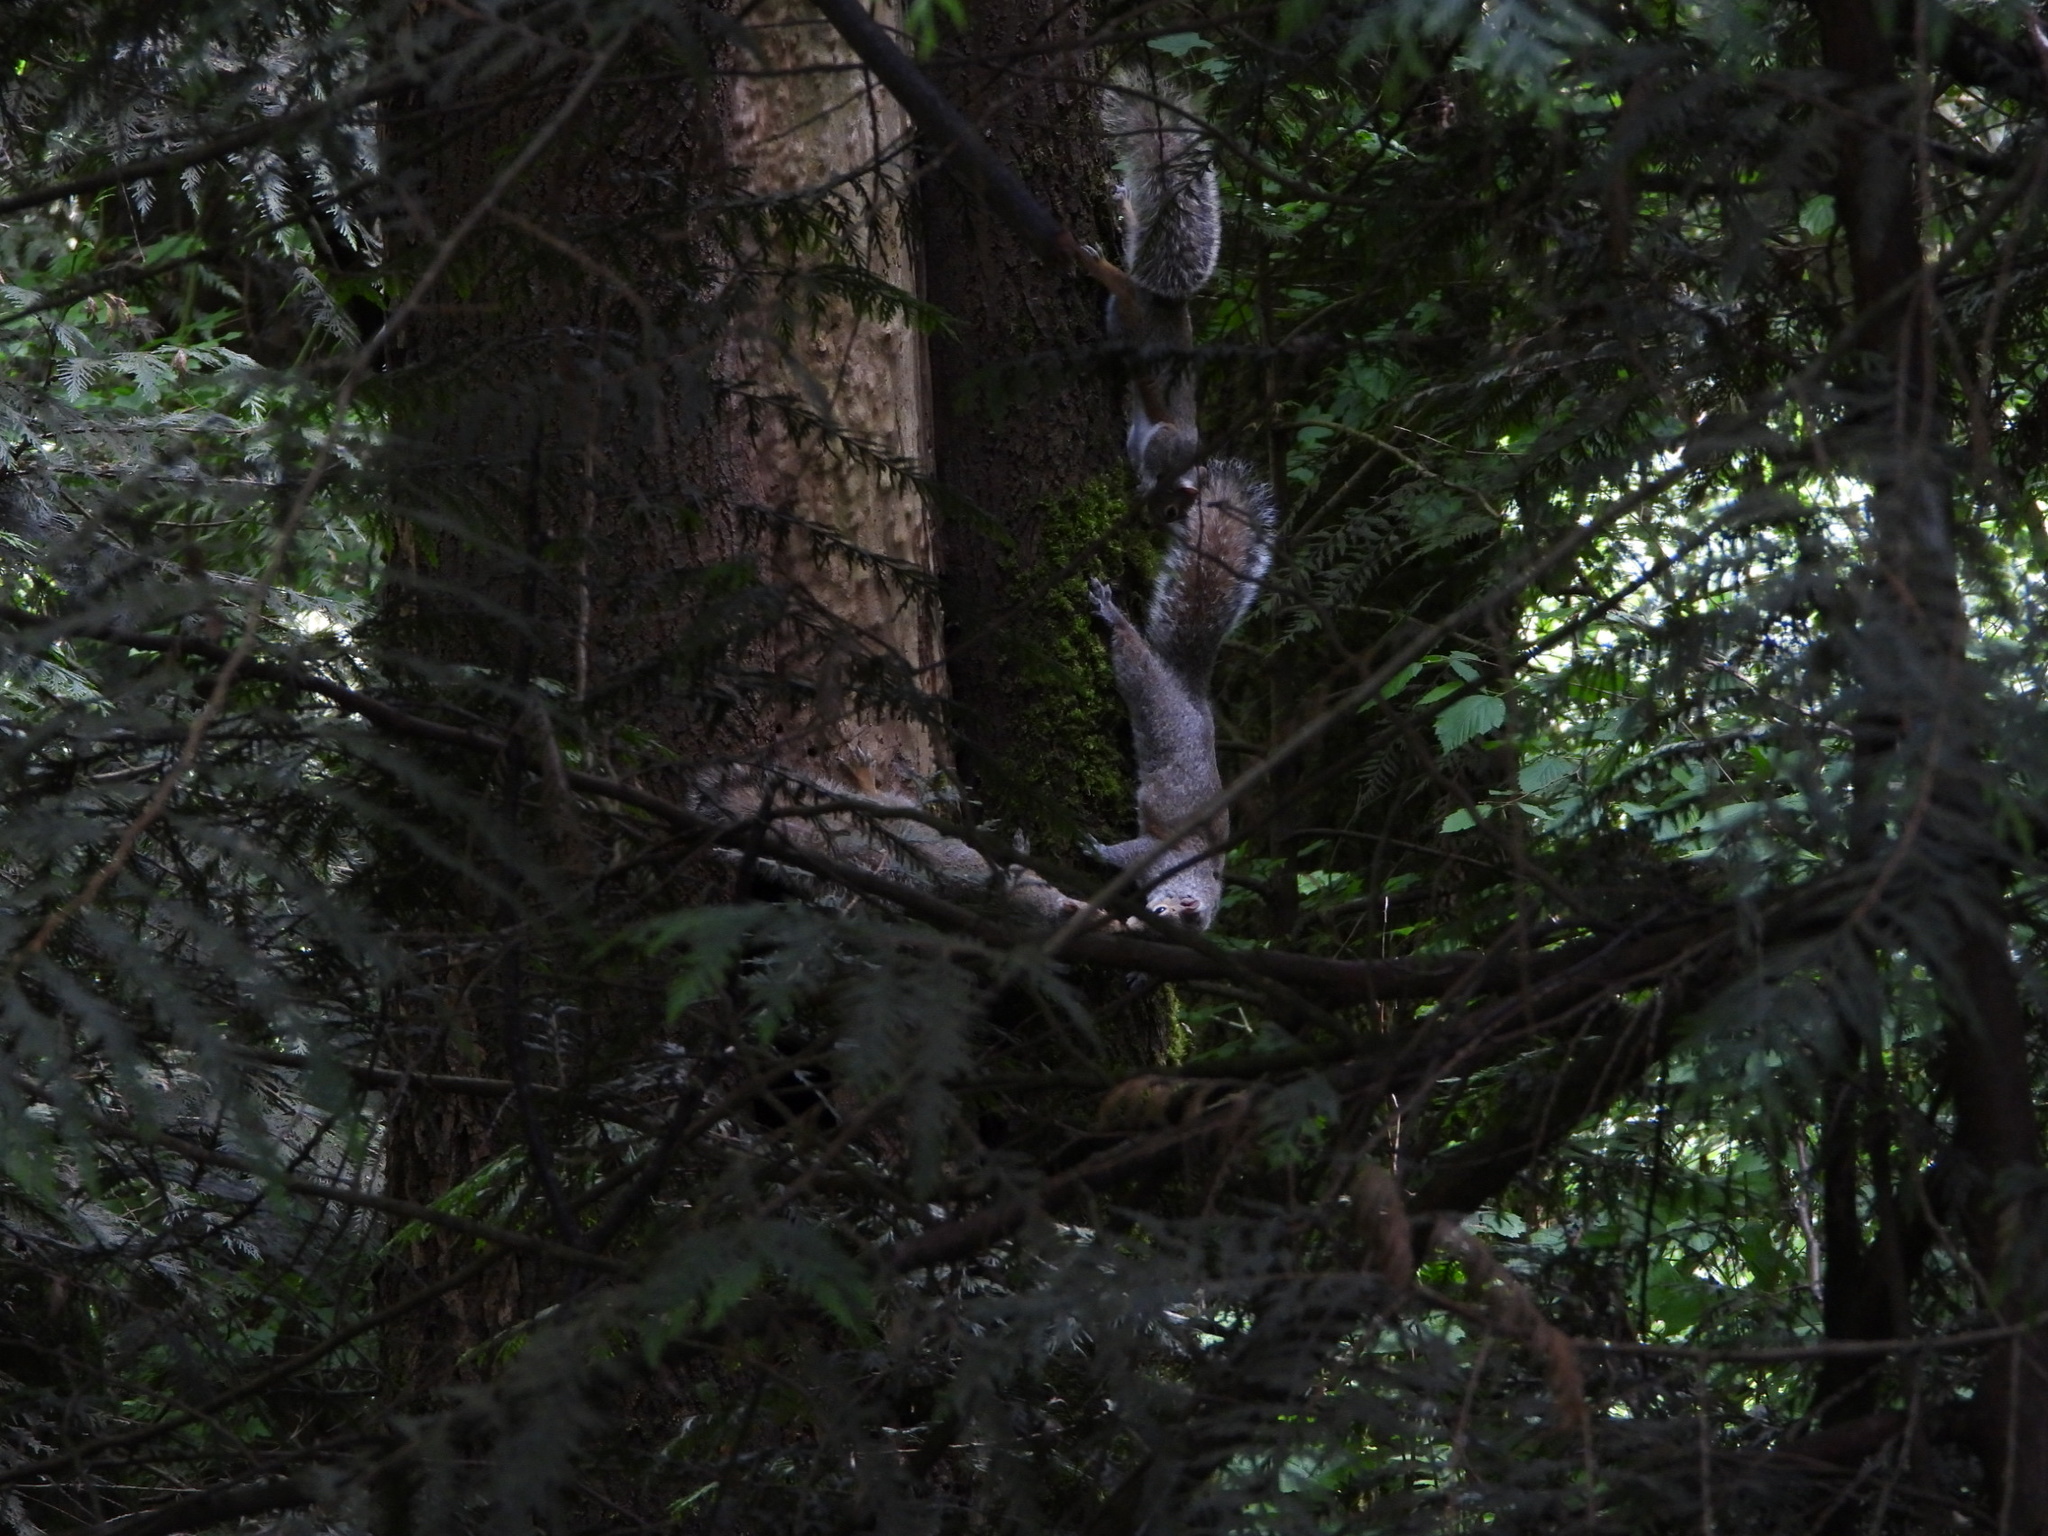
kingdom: Animalia
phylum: Chordata
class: Mammalia
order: Rodentia
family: Sciuridae
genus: Sciurus
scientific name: Sciurus carolinensis
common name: Eastern gray squirrel
